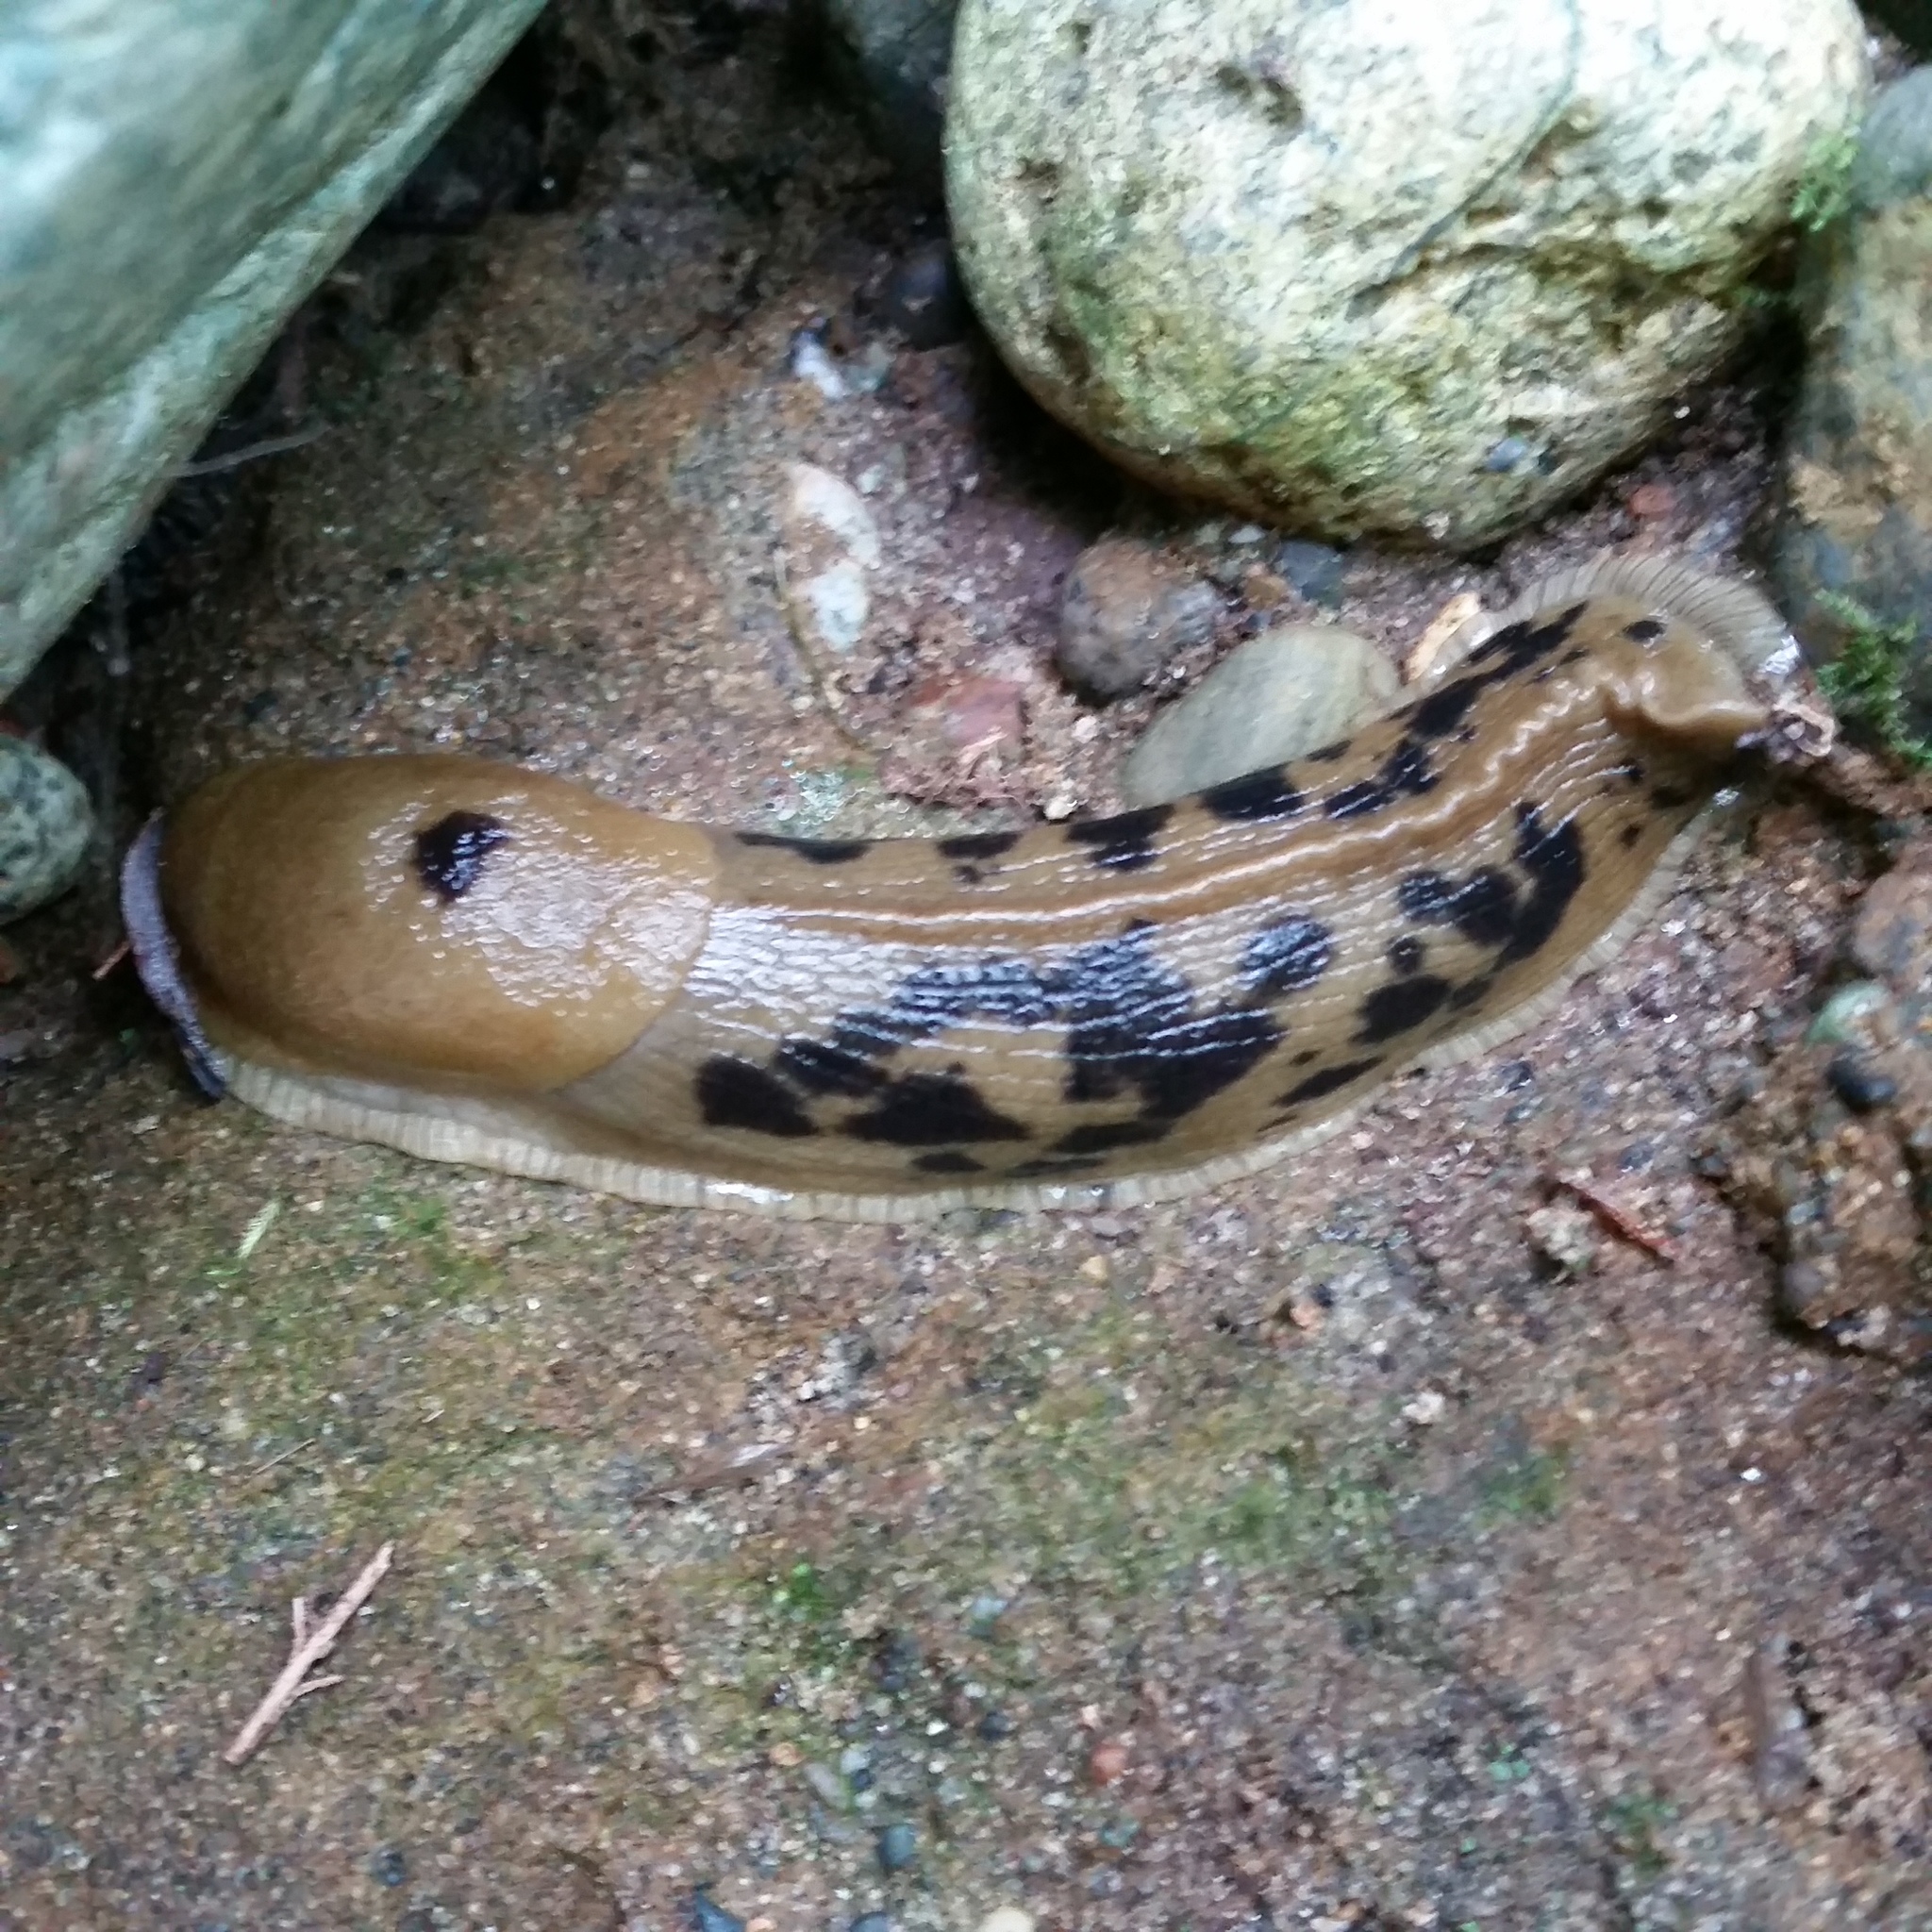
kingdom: Animalia
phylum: Mollusca
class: Gastropoda
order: Stylommatophora
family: Ariolimacidae
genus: Ariolimax
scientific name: Ariolimax columbianus
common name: Pacific banana slug
